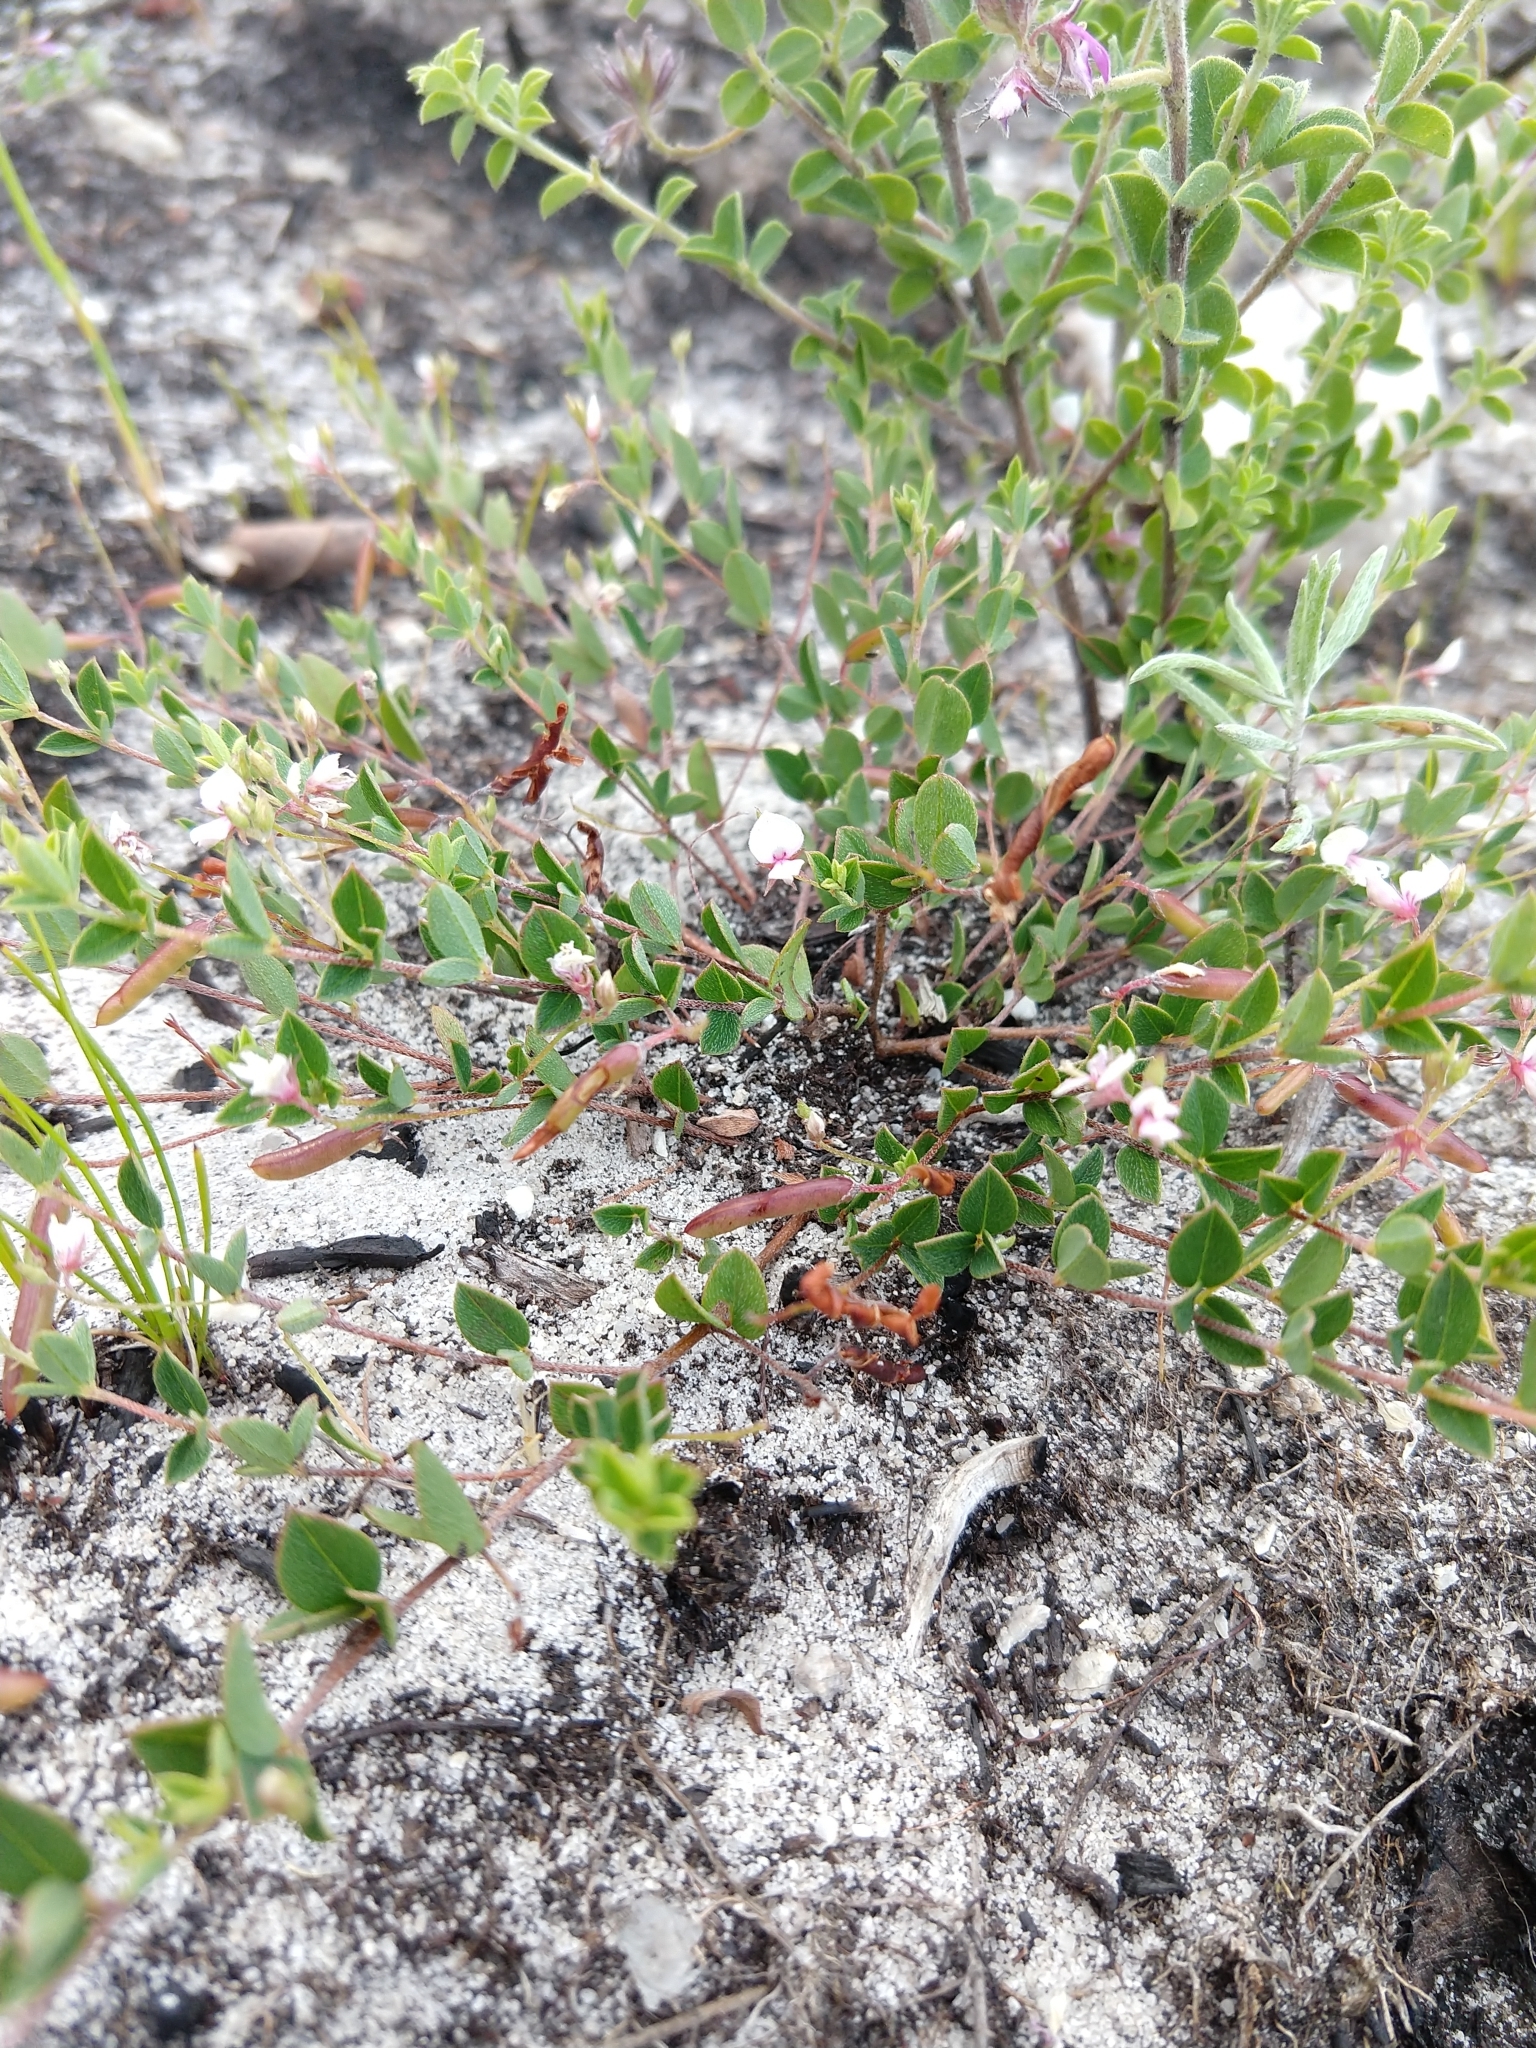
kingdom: Plantae
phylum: Tracheophyta
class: Magnoliopsida
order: Fabales
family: Fabaceae
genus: Indigofera
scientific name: Indigofera sarmentosa
